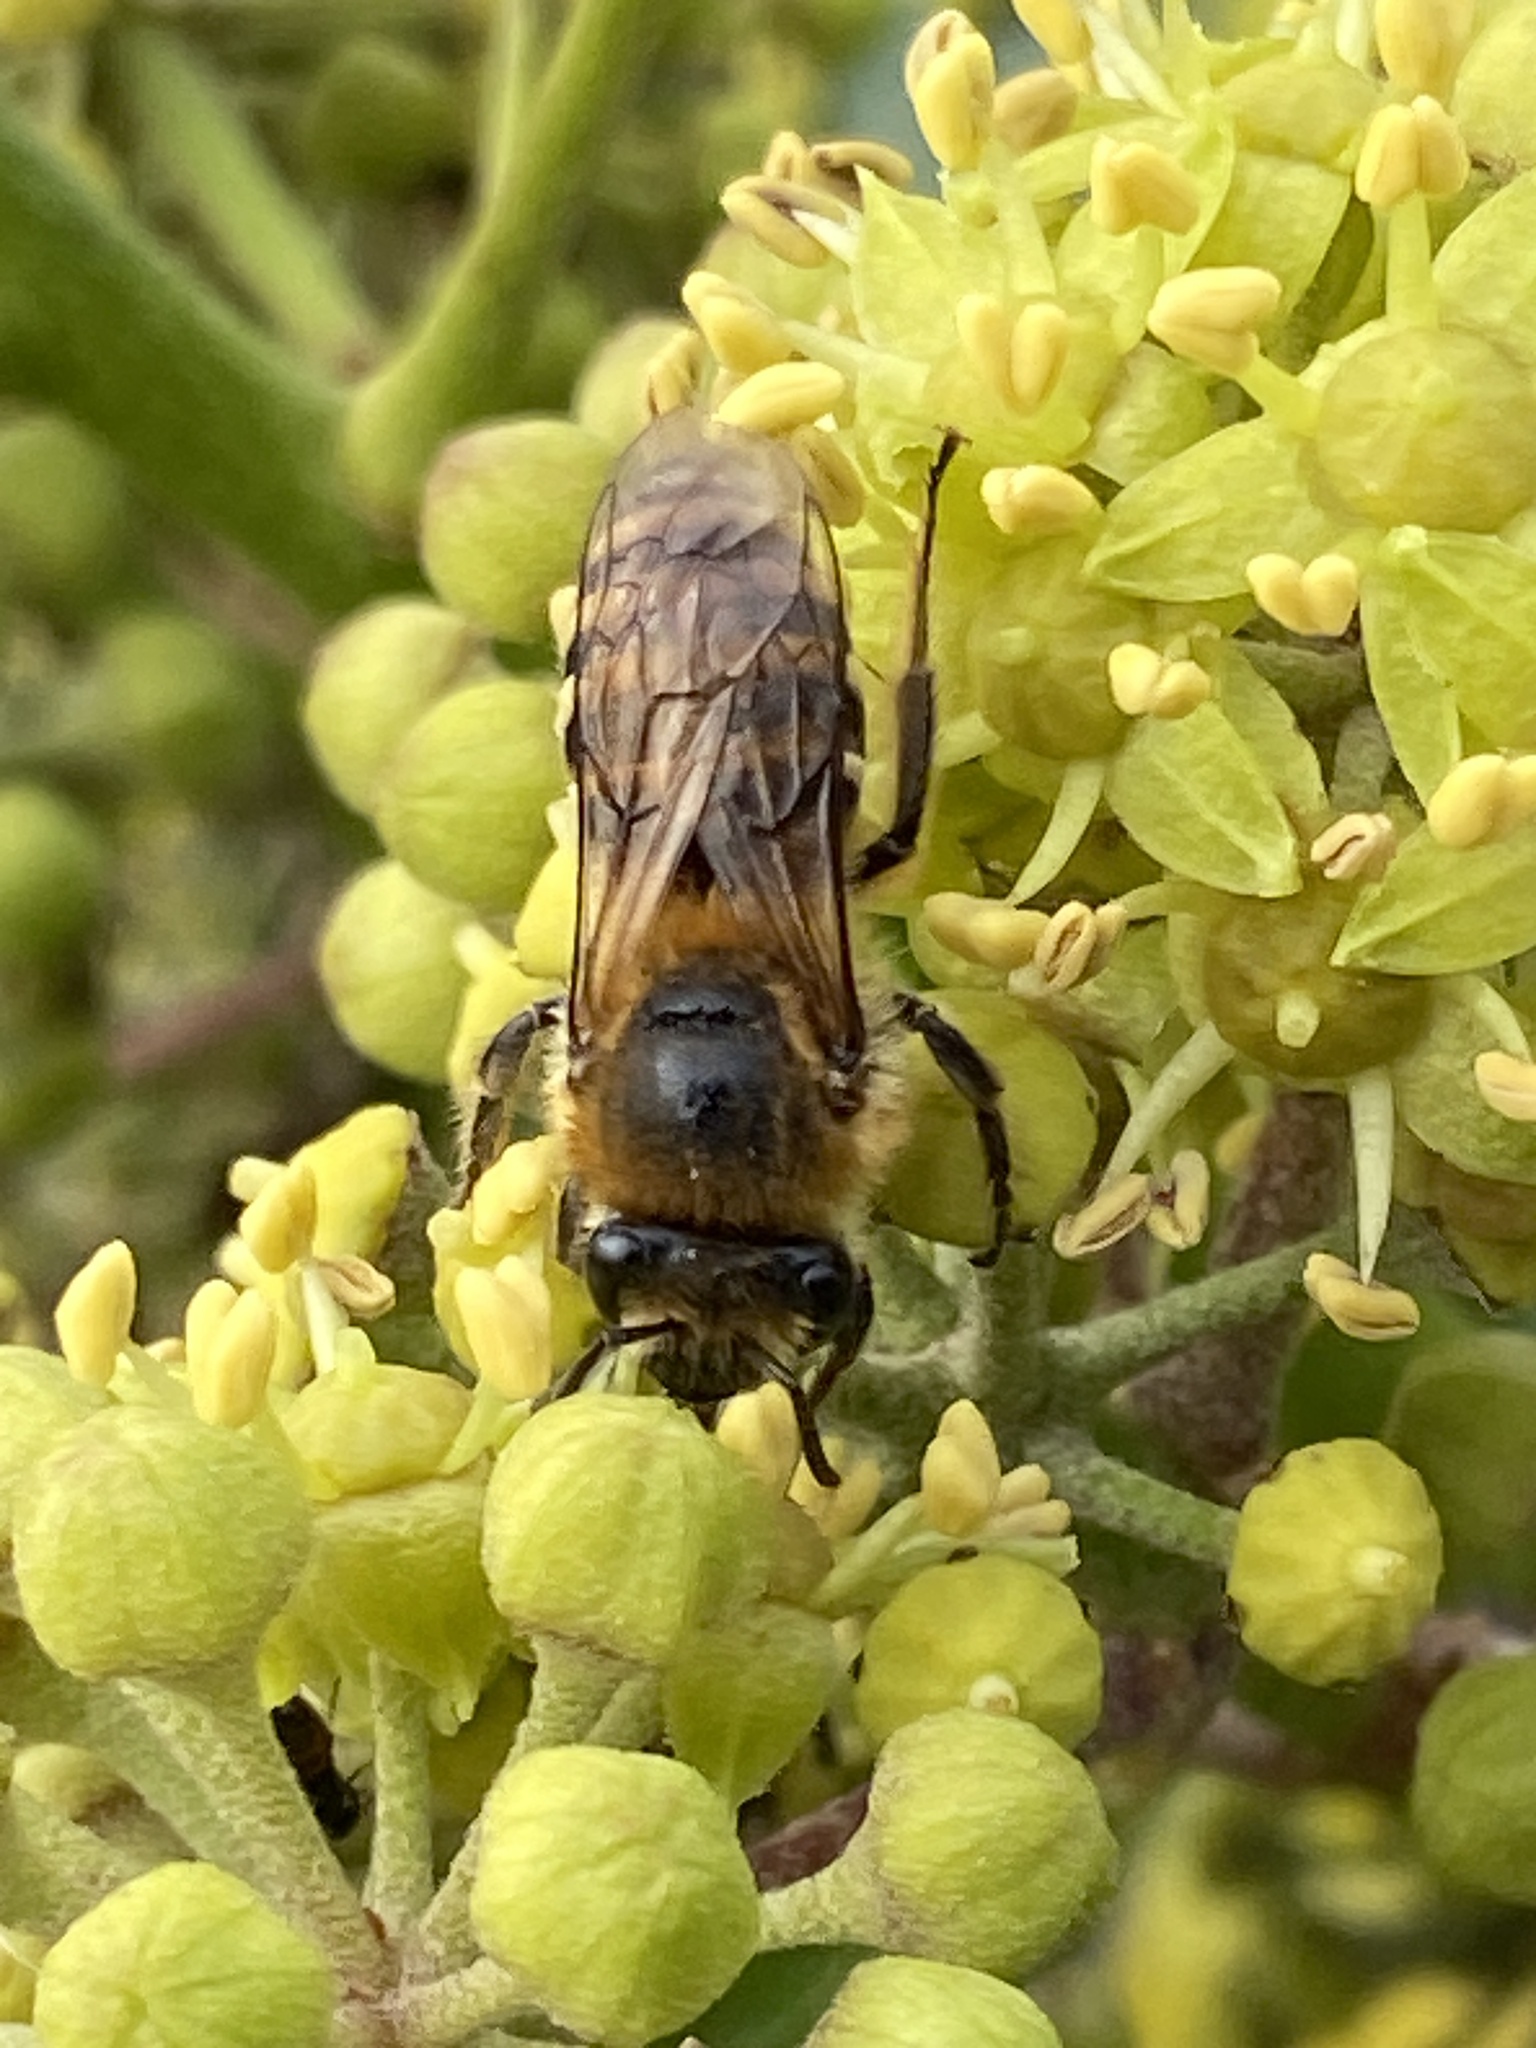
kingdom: Animalia
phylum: Arthropoda
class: Insecta
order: Hymenoptera
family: Colletidae
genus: Colletes
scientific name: Colletes hederae
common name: Ivy bee
